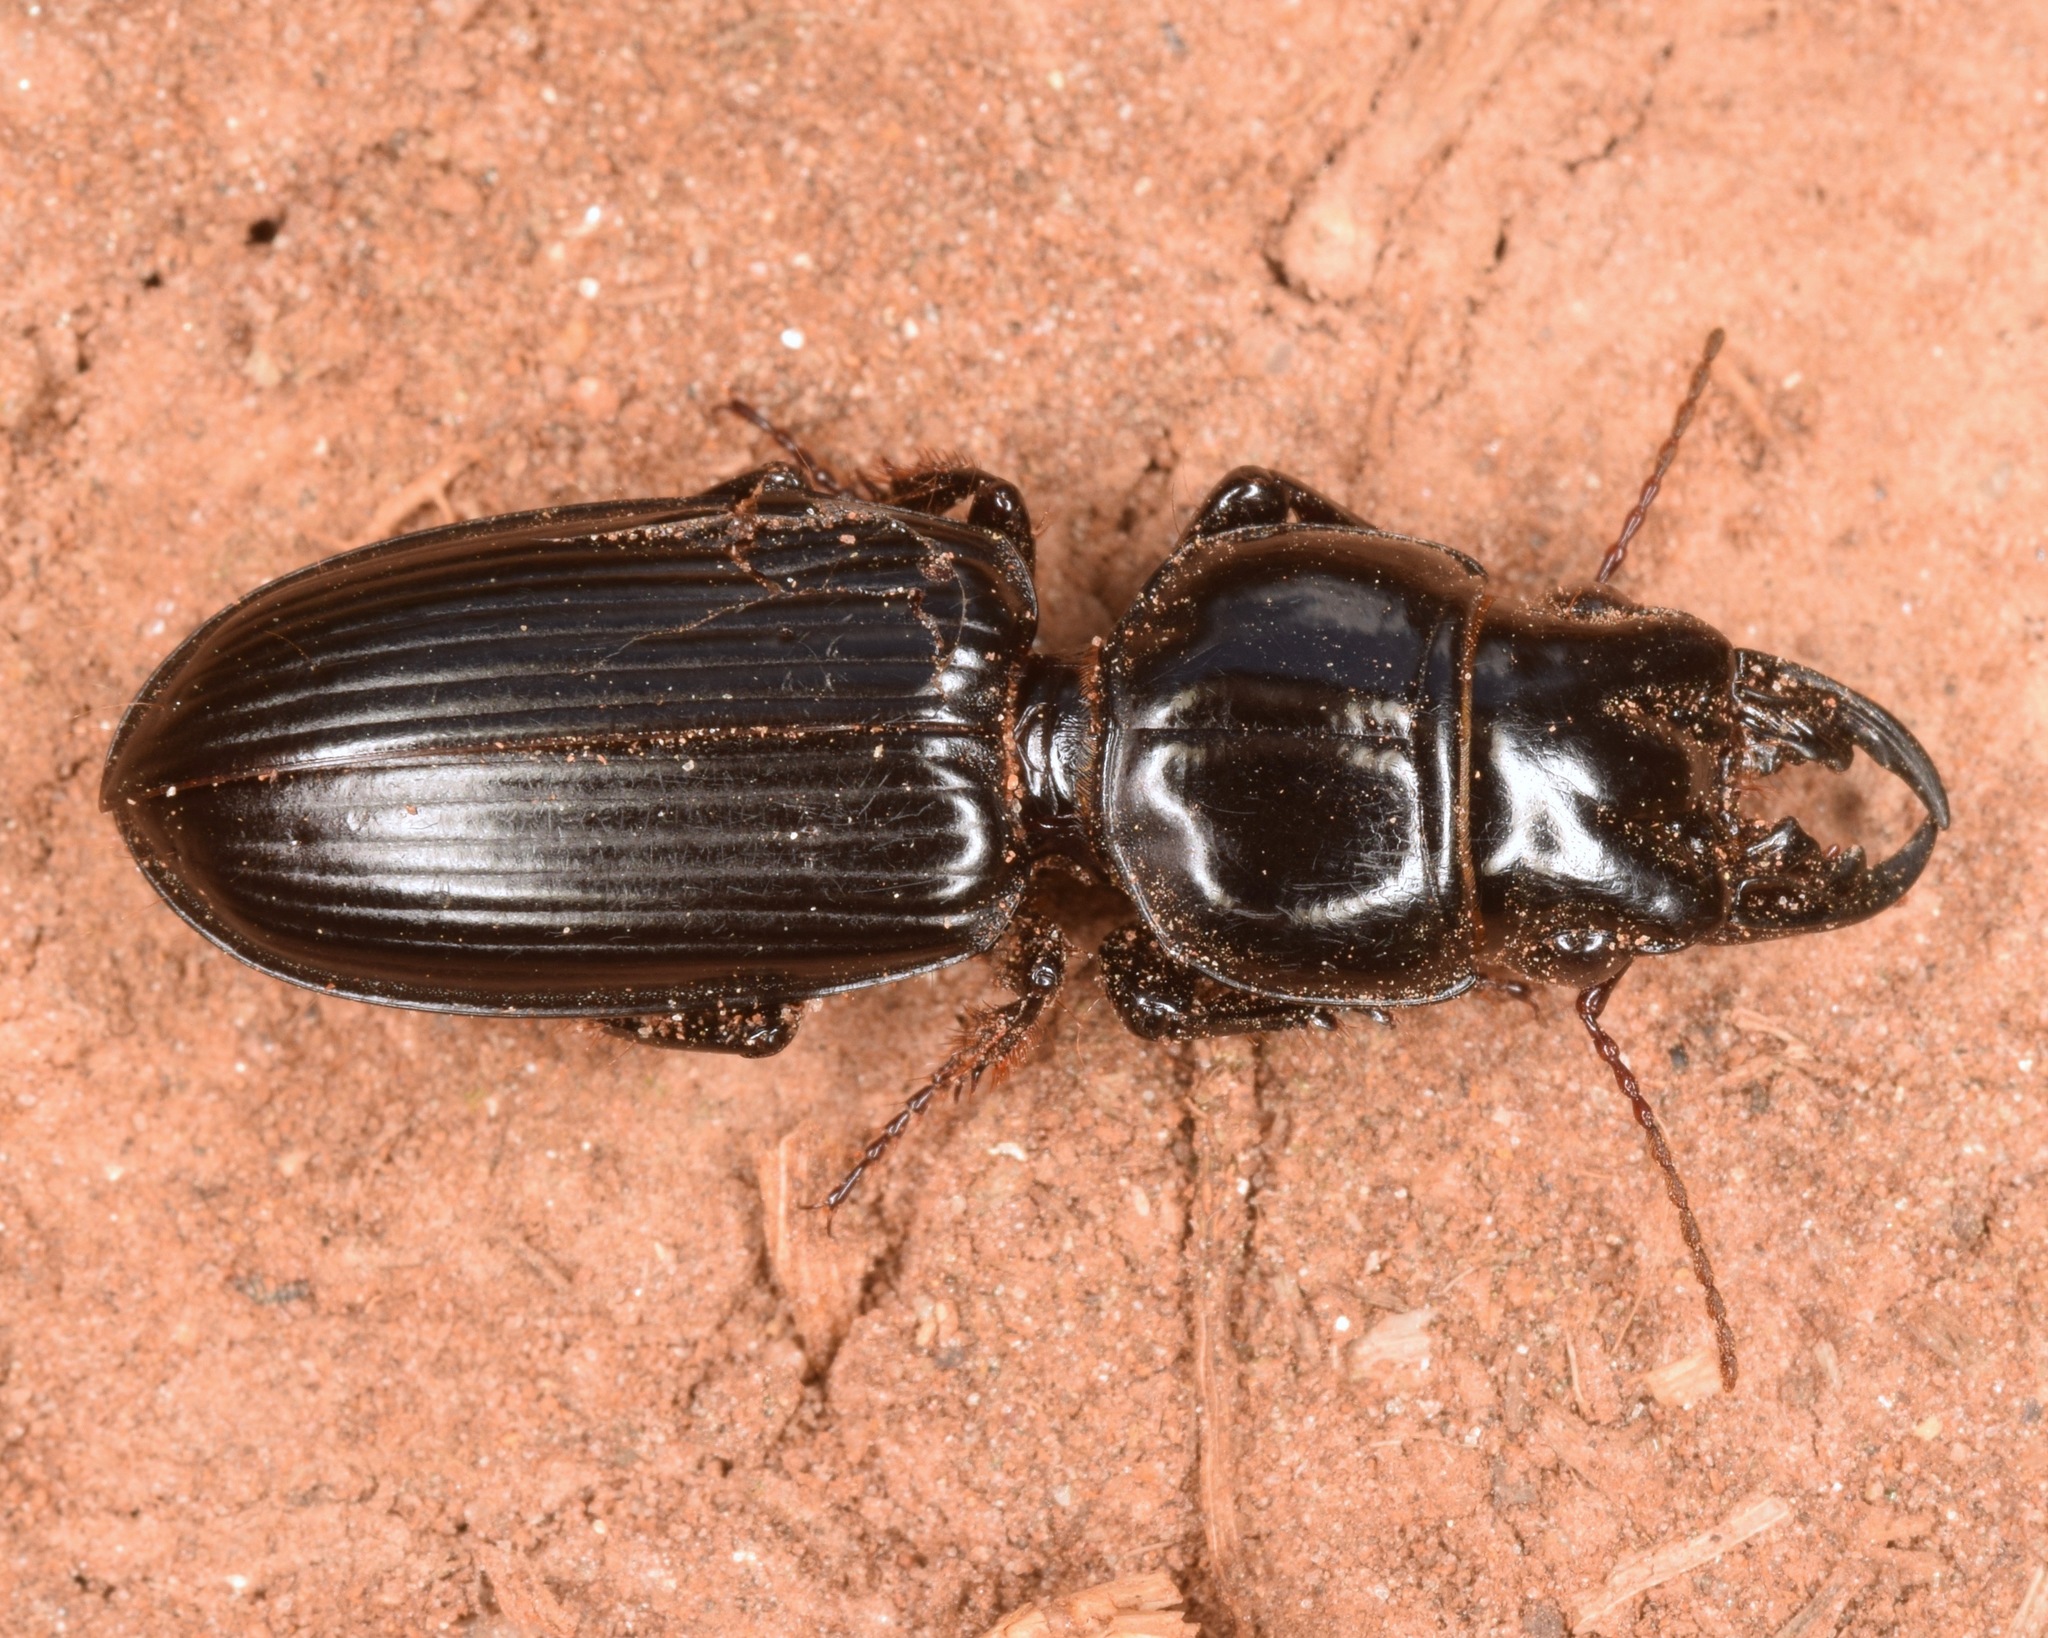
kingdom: Animalia
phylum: Arthropoda
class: Insecta
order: Coleoptera
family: Carabidae
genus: Scarites
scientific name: Scarites subterraneus
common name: Big-headed ground beetle
